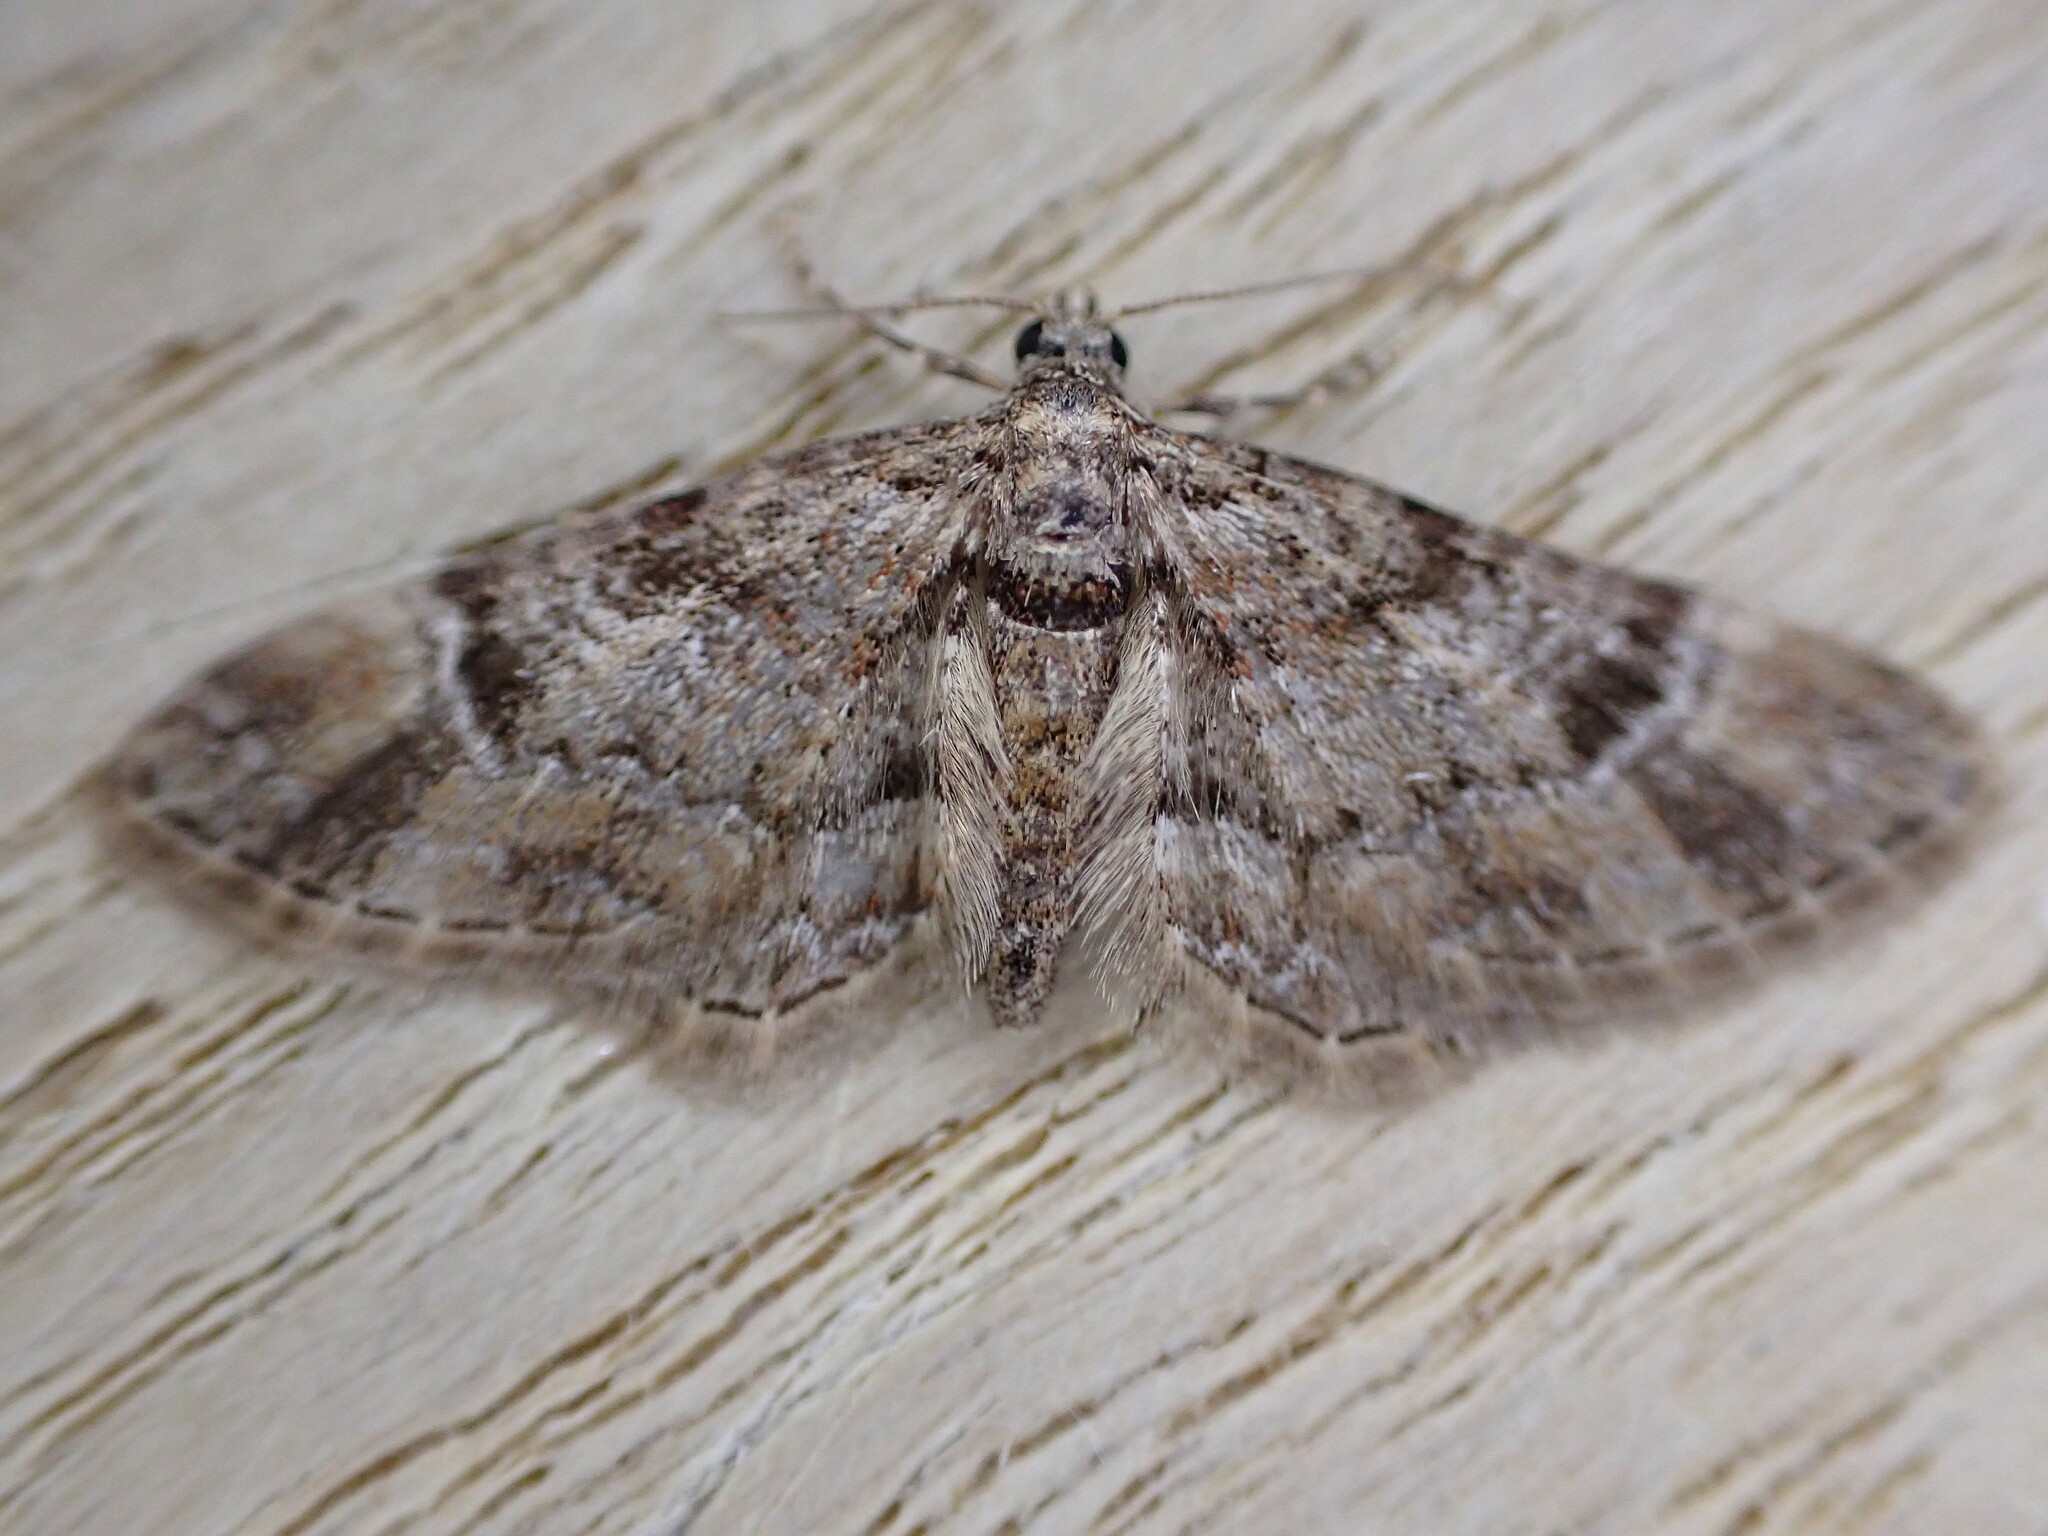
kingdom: Animalia
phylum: Arthropoda
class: Insecta
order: Lepidoptera
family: Geometridae
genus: Gymnoscelis
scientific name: Gymnoscelis rufifasciata
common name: Double-striped pug
